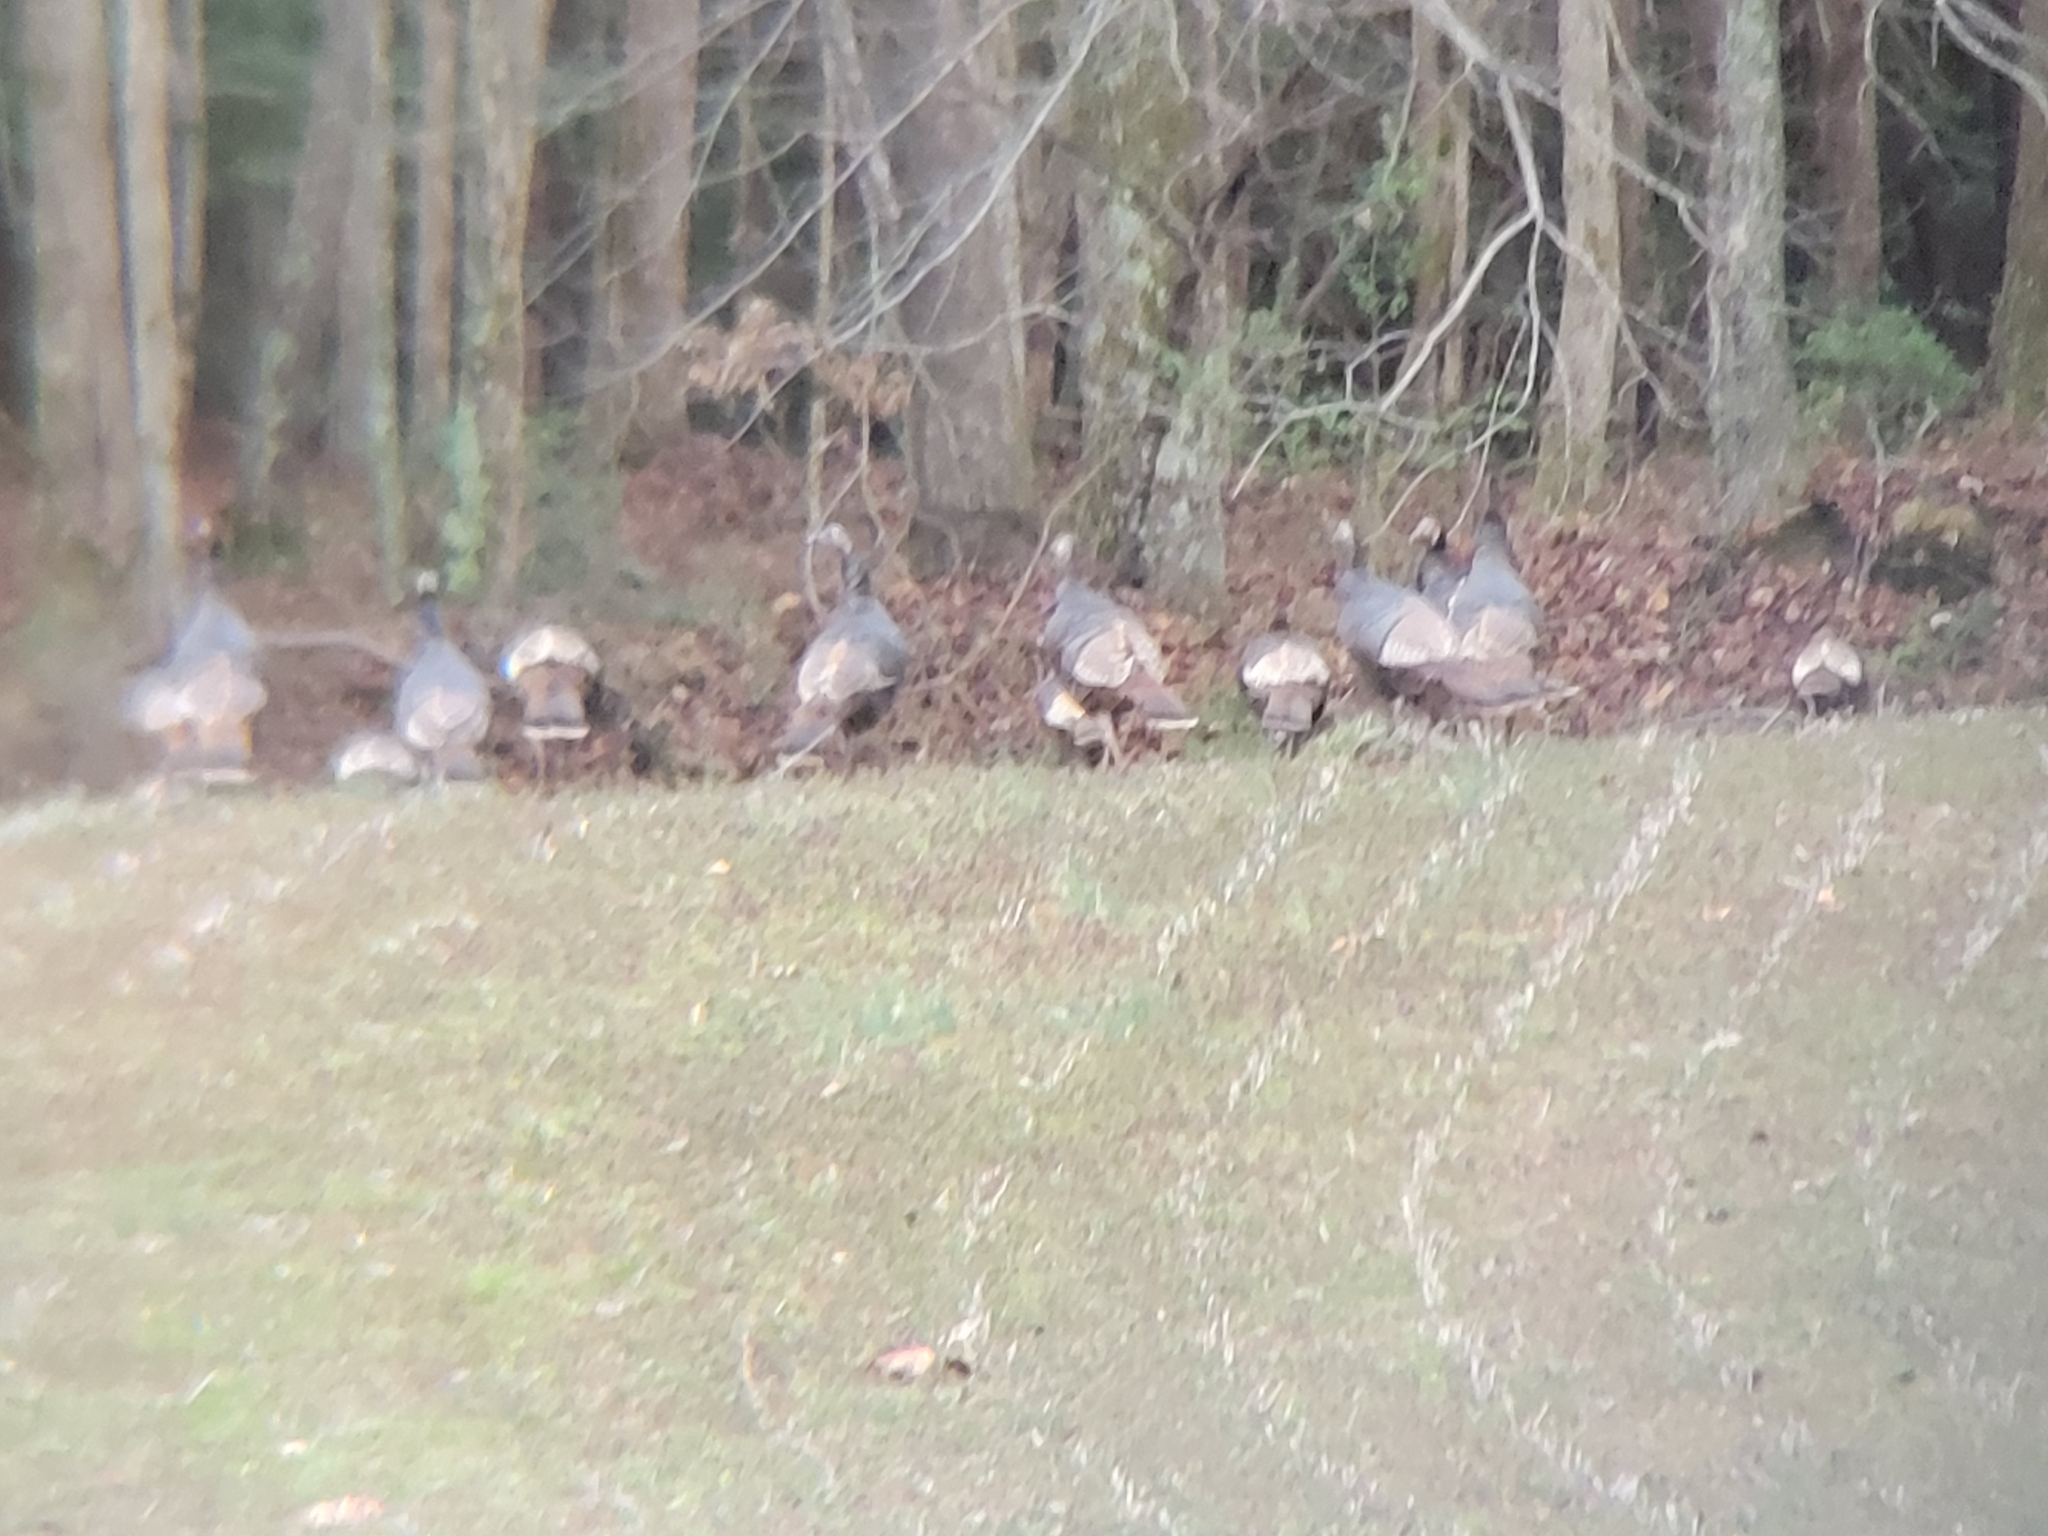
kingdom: Animalia
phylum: Chordata
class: Aves
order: Galliformes
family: Phasianidae
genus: Meleagris
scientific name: Meleagris gallopavo
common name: Wild turkey
